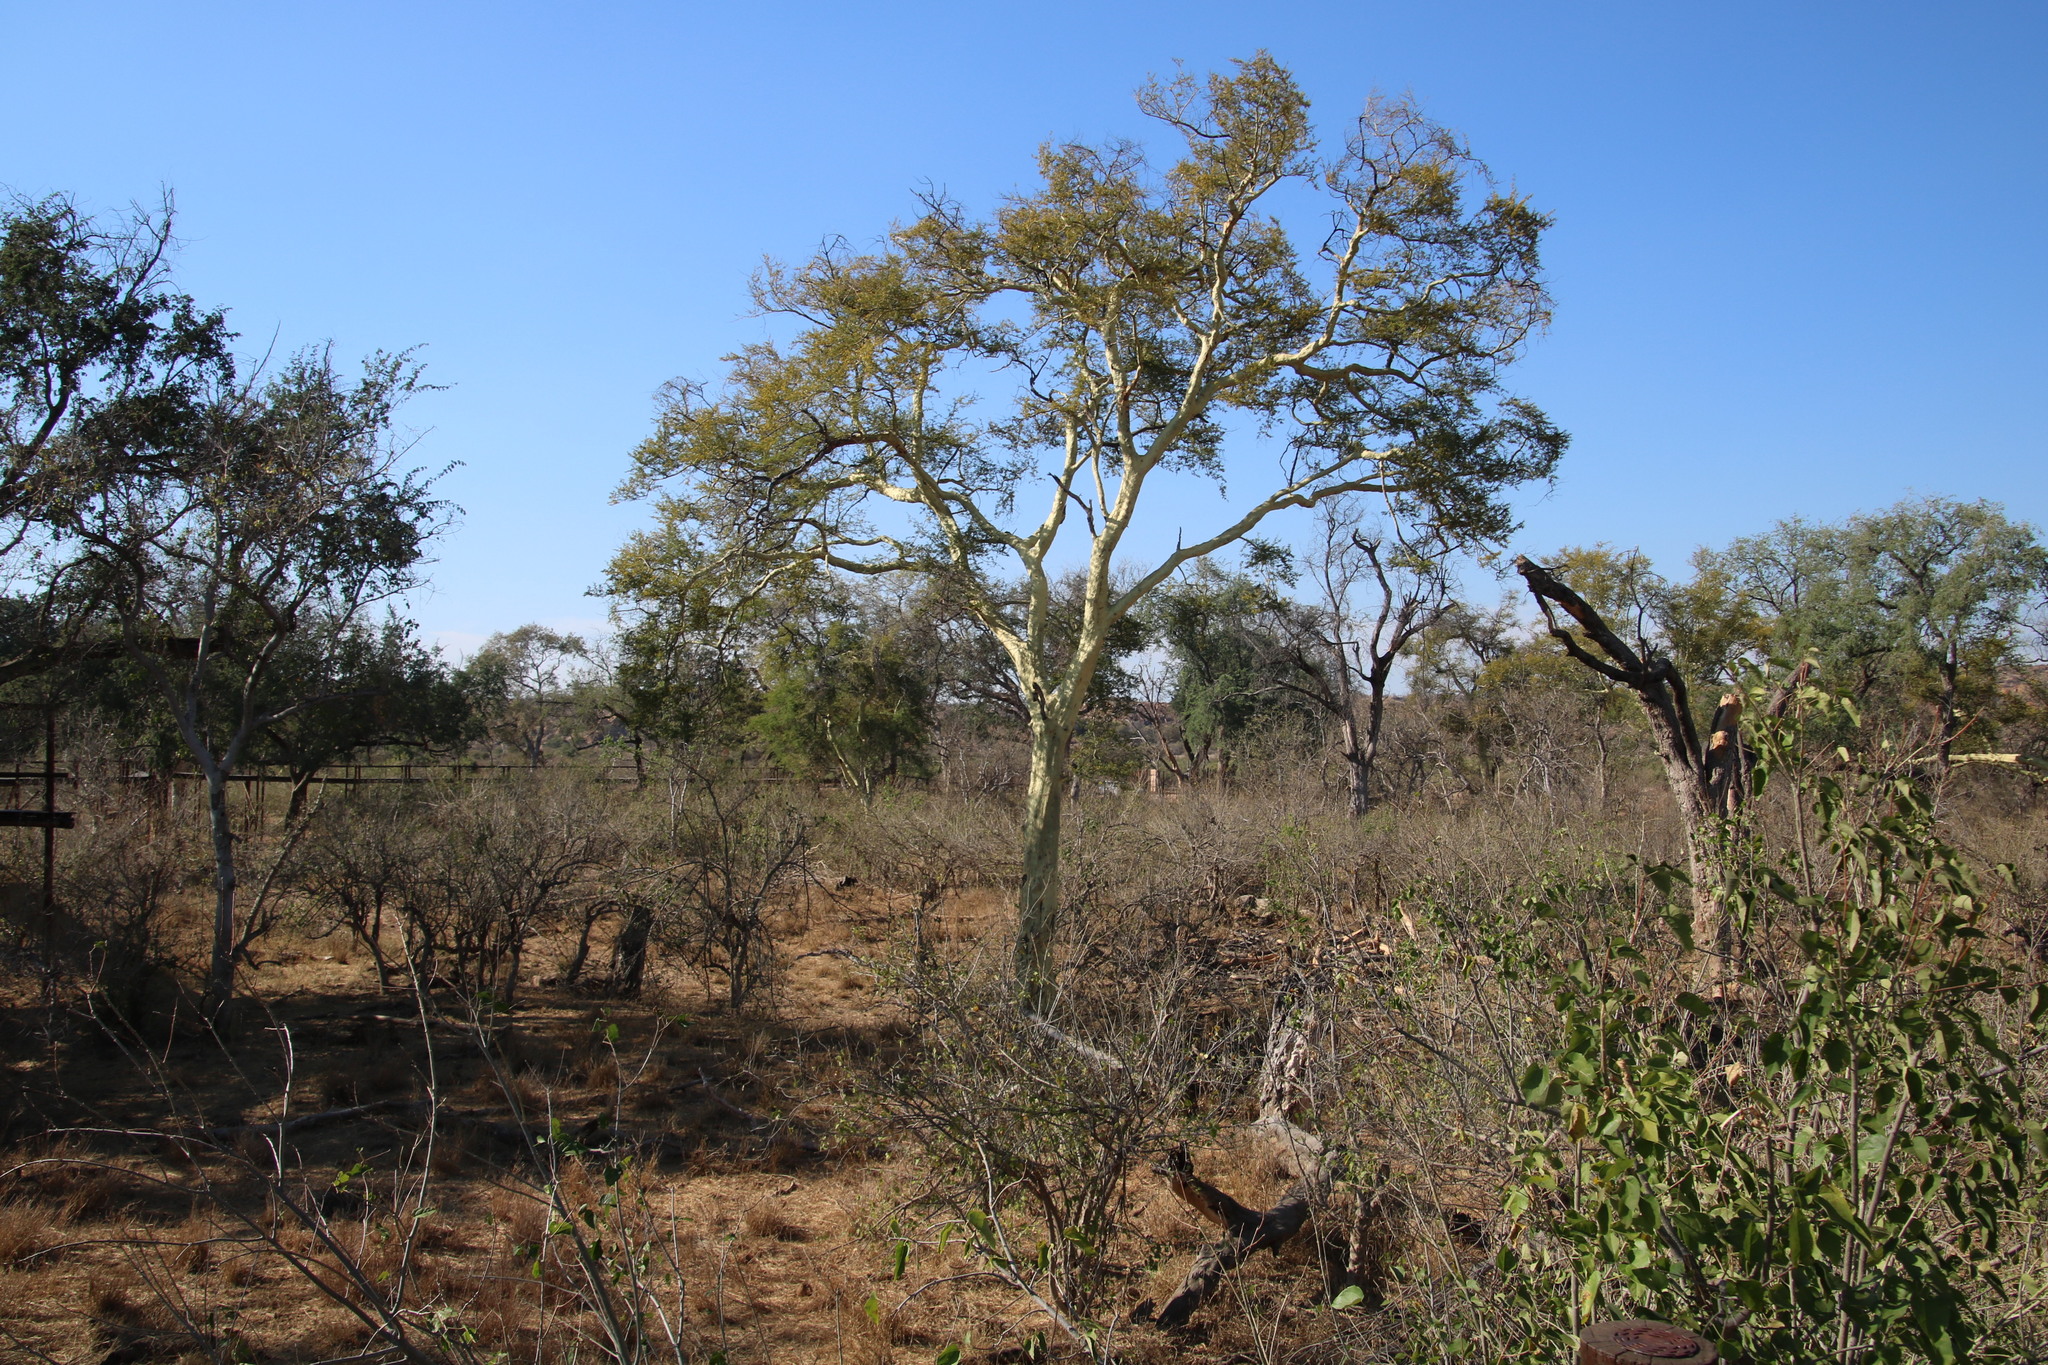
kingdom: Plantae
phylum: Tracheophyta
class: Magnoliopsida
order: Fabales
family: Fabaceae
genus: Vachellia
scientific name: Vachellia xanthophloea
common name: Fever tree
